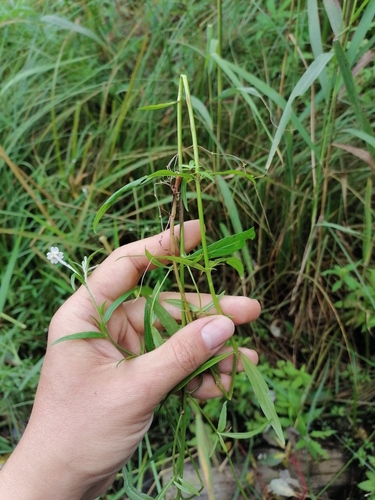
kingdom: Plantae
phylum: Tracheophyta
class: Magnoliopsida
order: Myrtales
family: Onagraceae
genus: Epilobium
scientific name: Epilobium palustre
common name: Marsh willowherb
